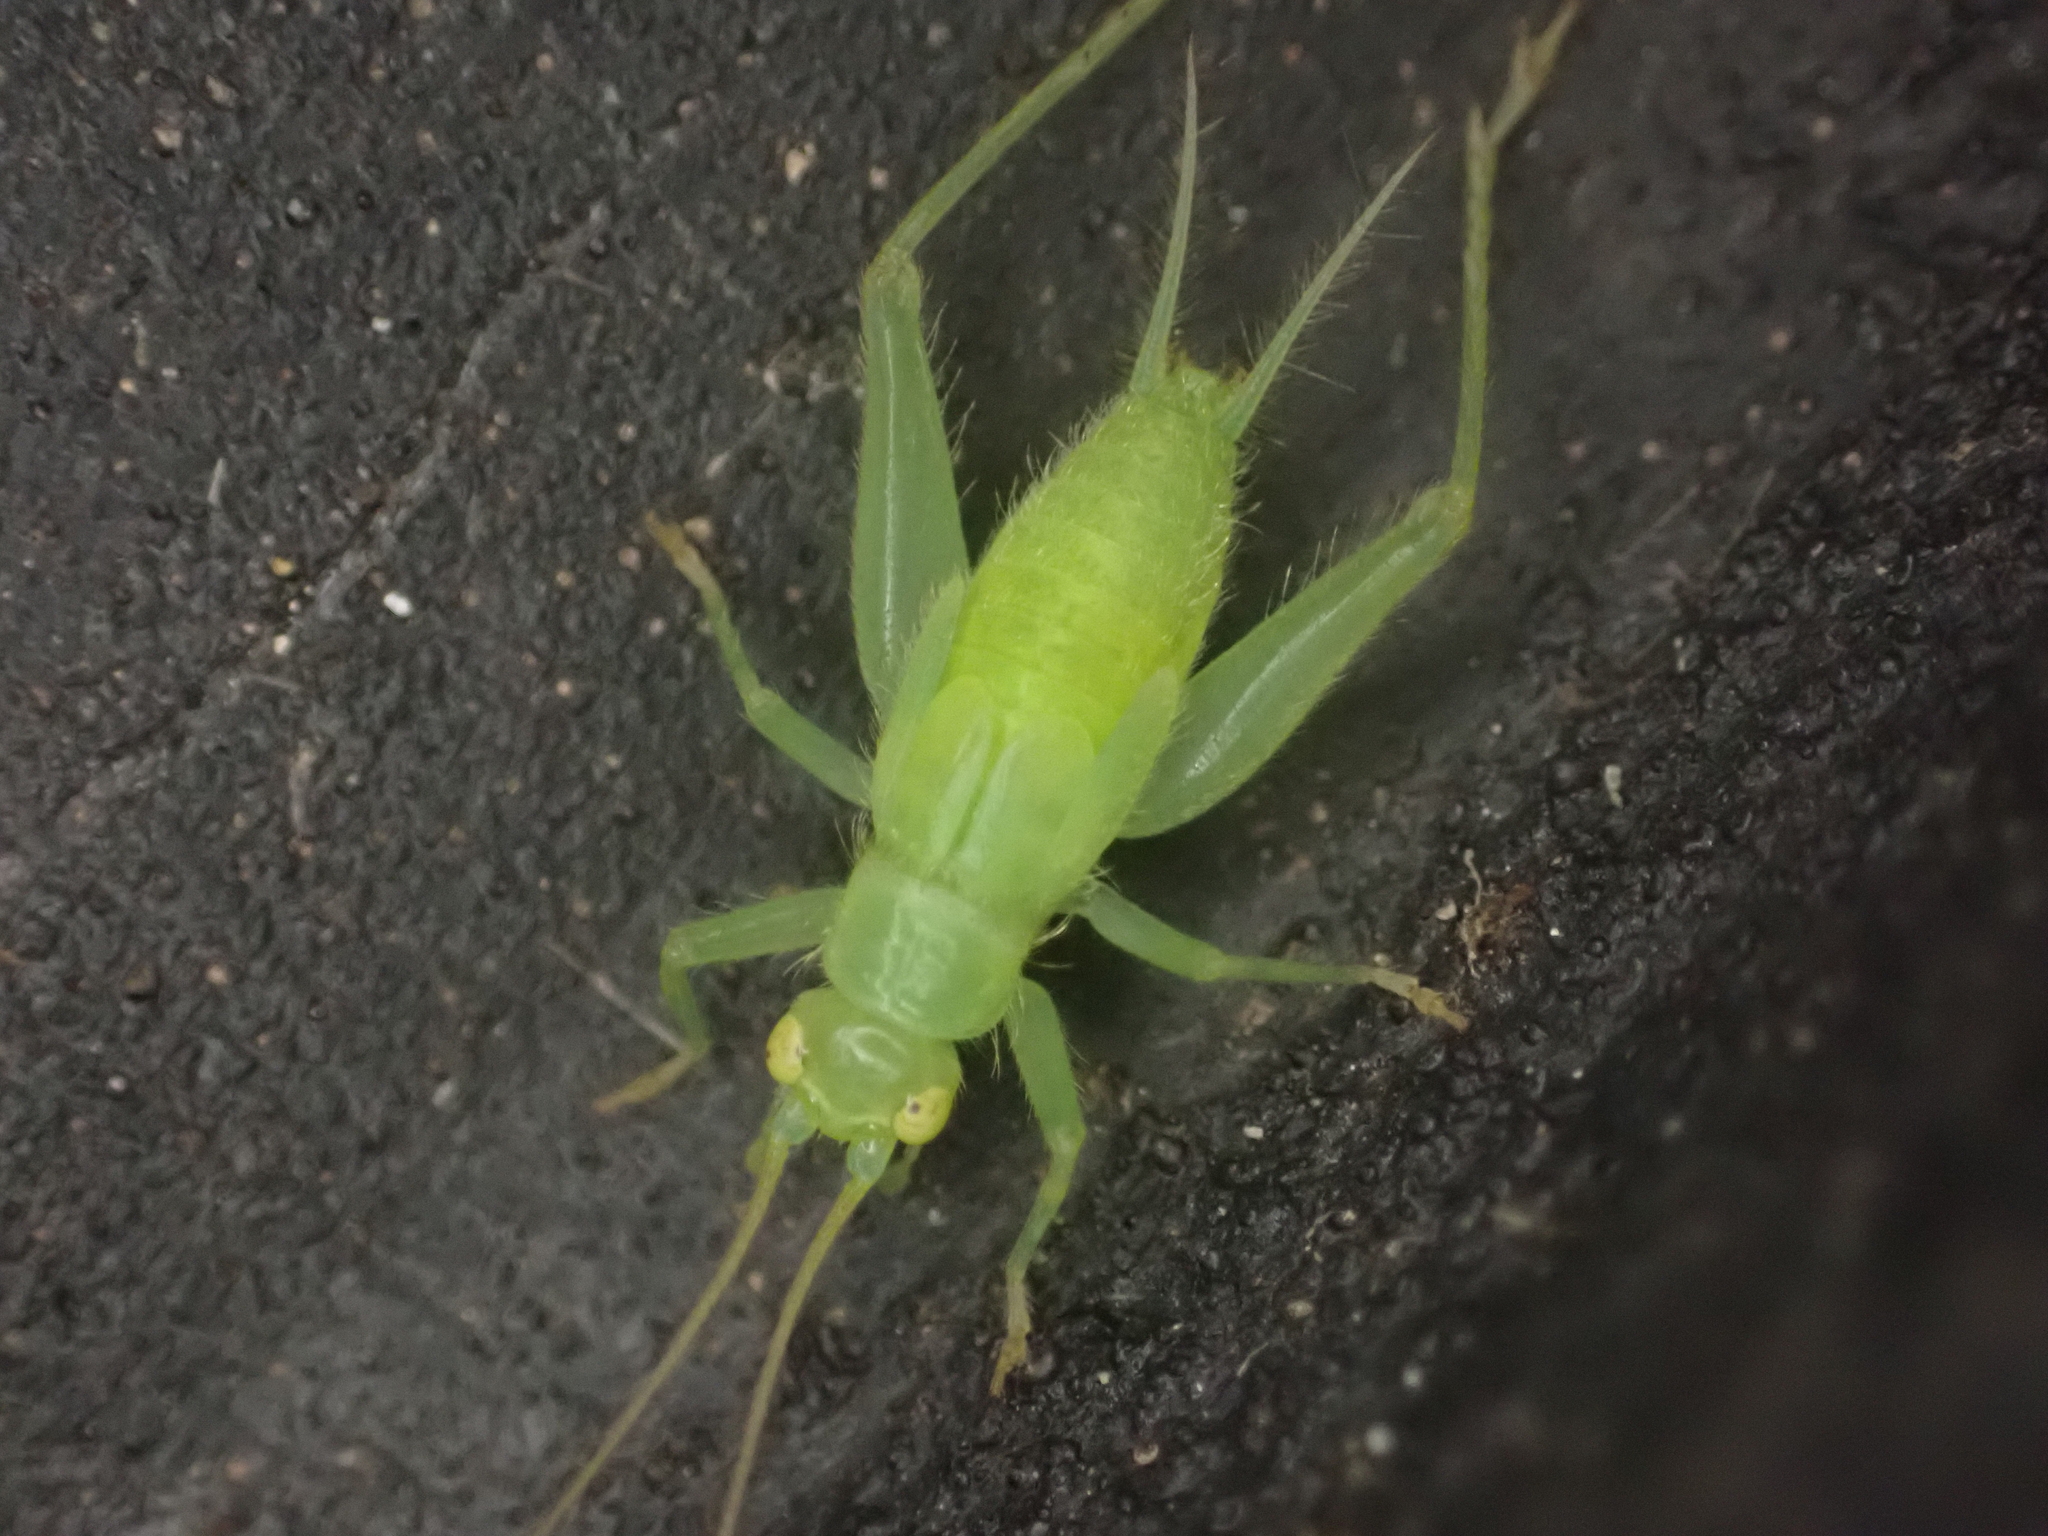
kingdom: Animalia
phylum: Arthropoda
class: Insecta
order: Orthoptera
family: Trigonidiidae
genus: Cyrtoxipha
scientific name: Cyrtoxipha columbiana
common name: Columbian trig
